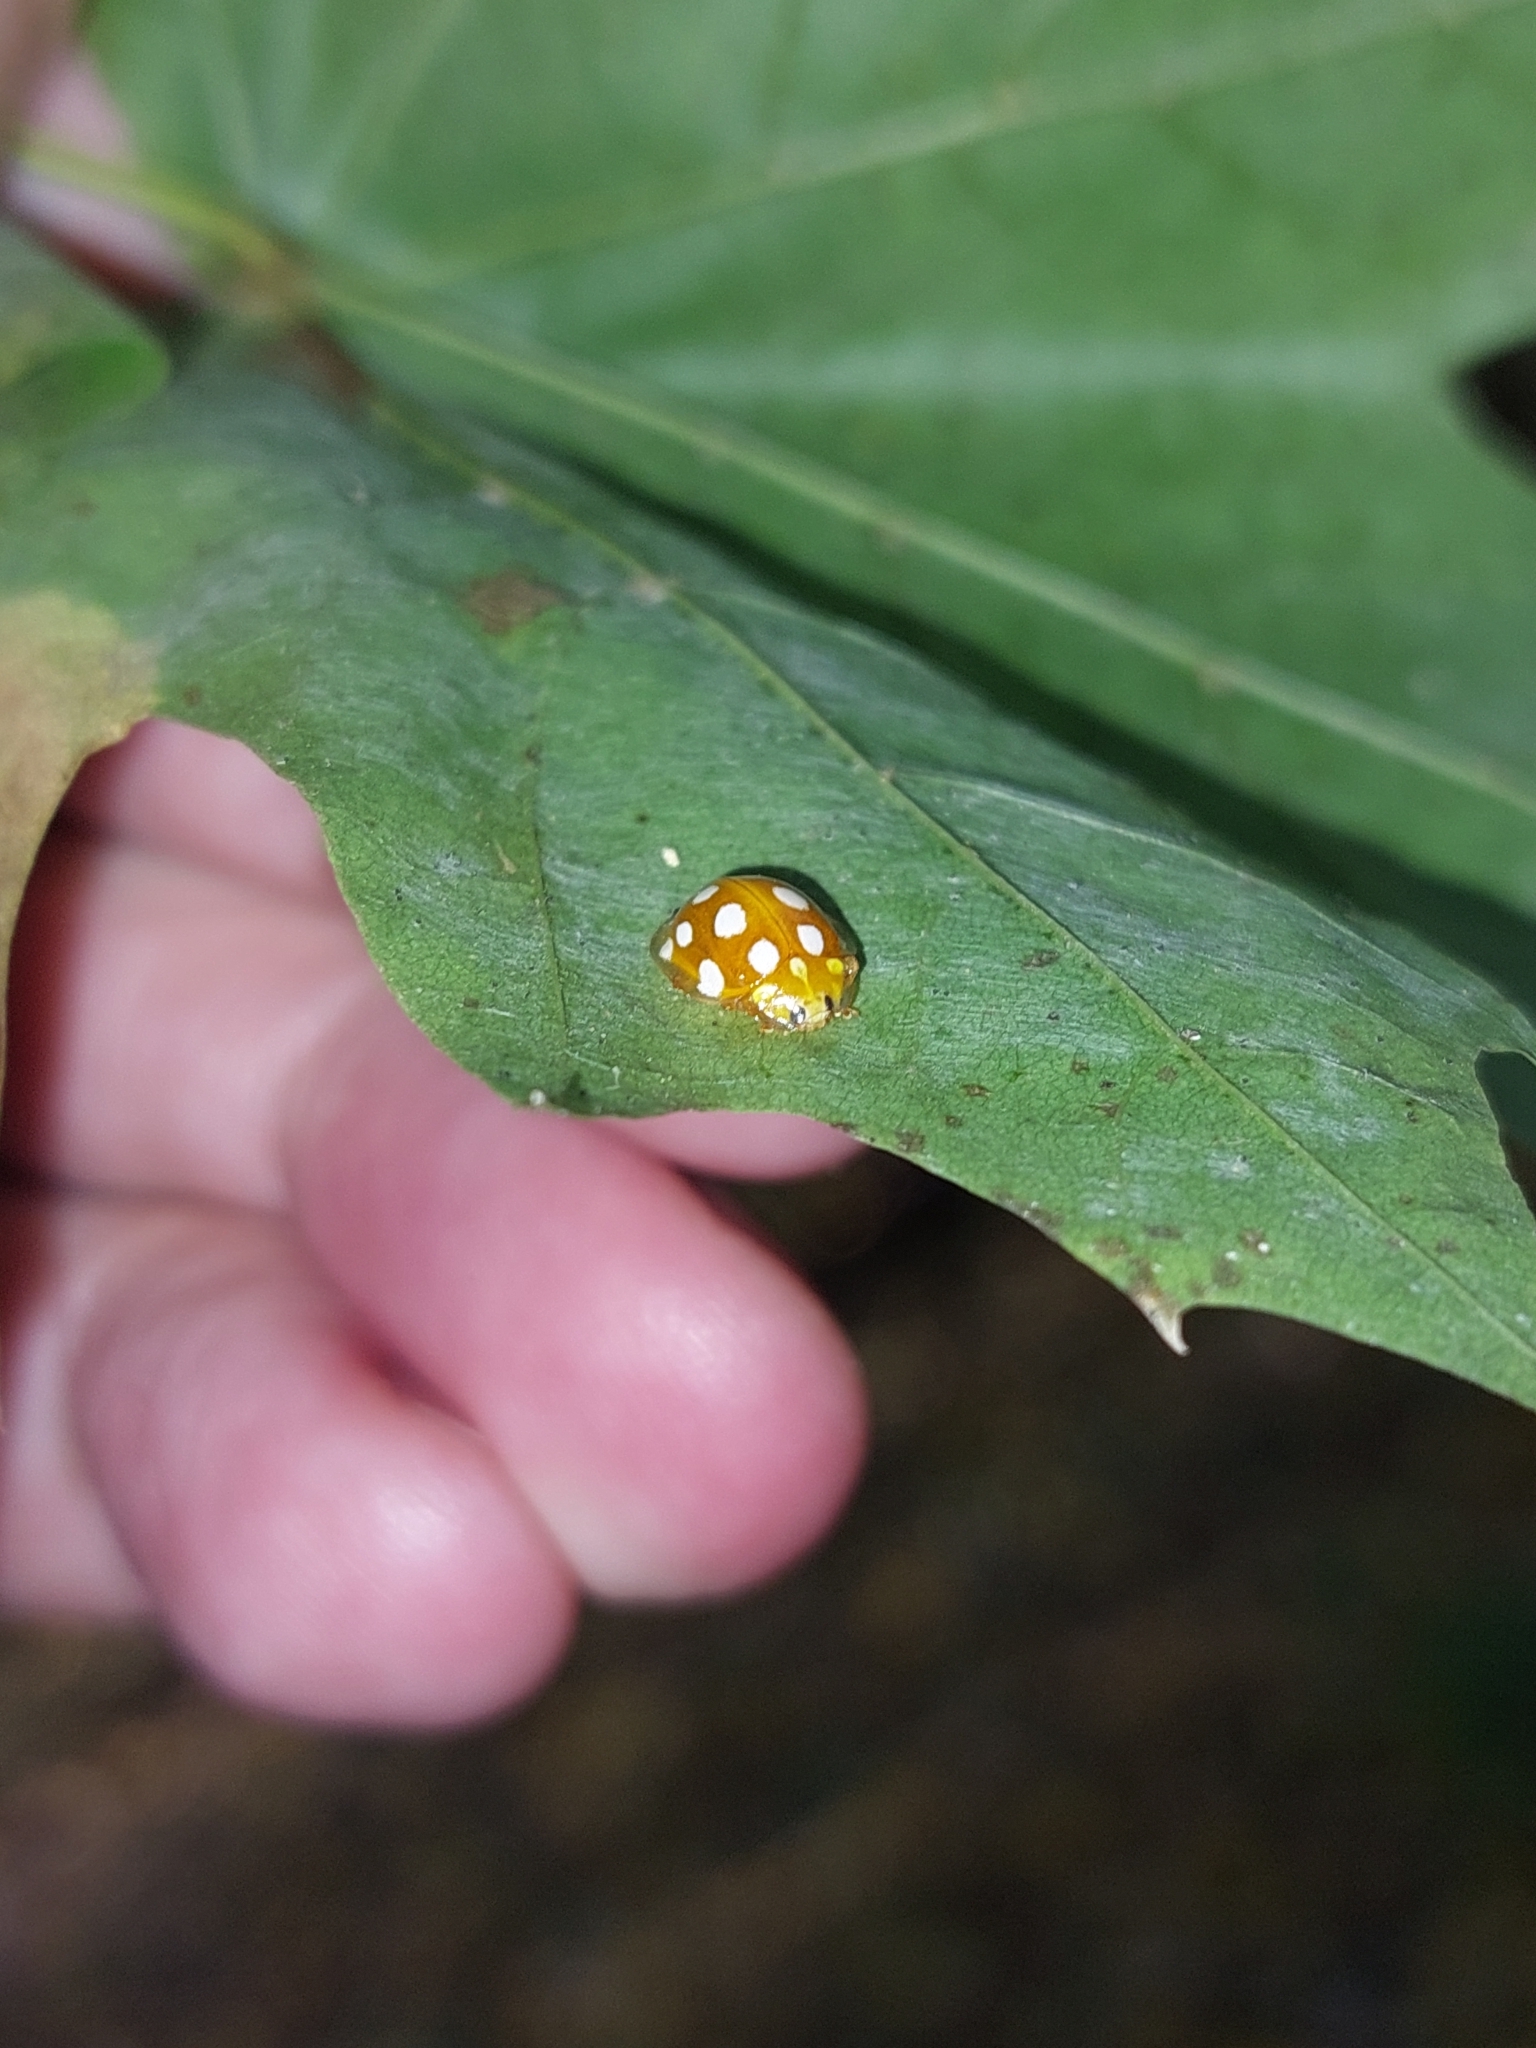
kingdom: Animalia
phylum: Arthropoda
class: Insecta
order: Coleoptera
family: Coccinellidae
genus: Halyzia
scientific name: Halyzia sedecimguttata
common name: Orange ladybird
